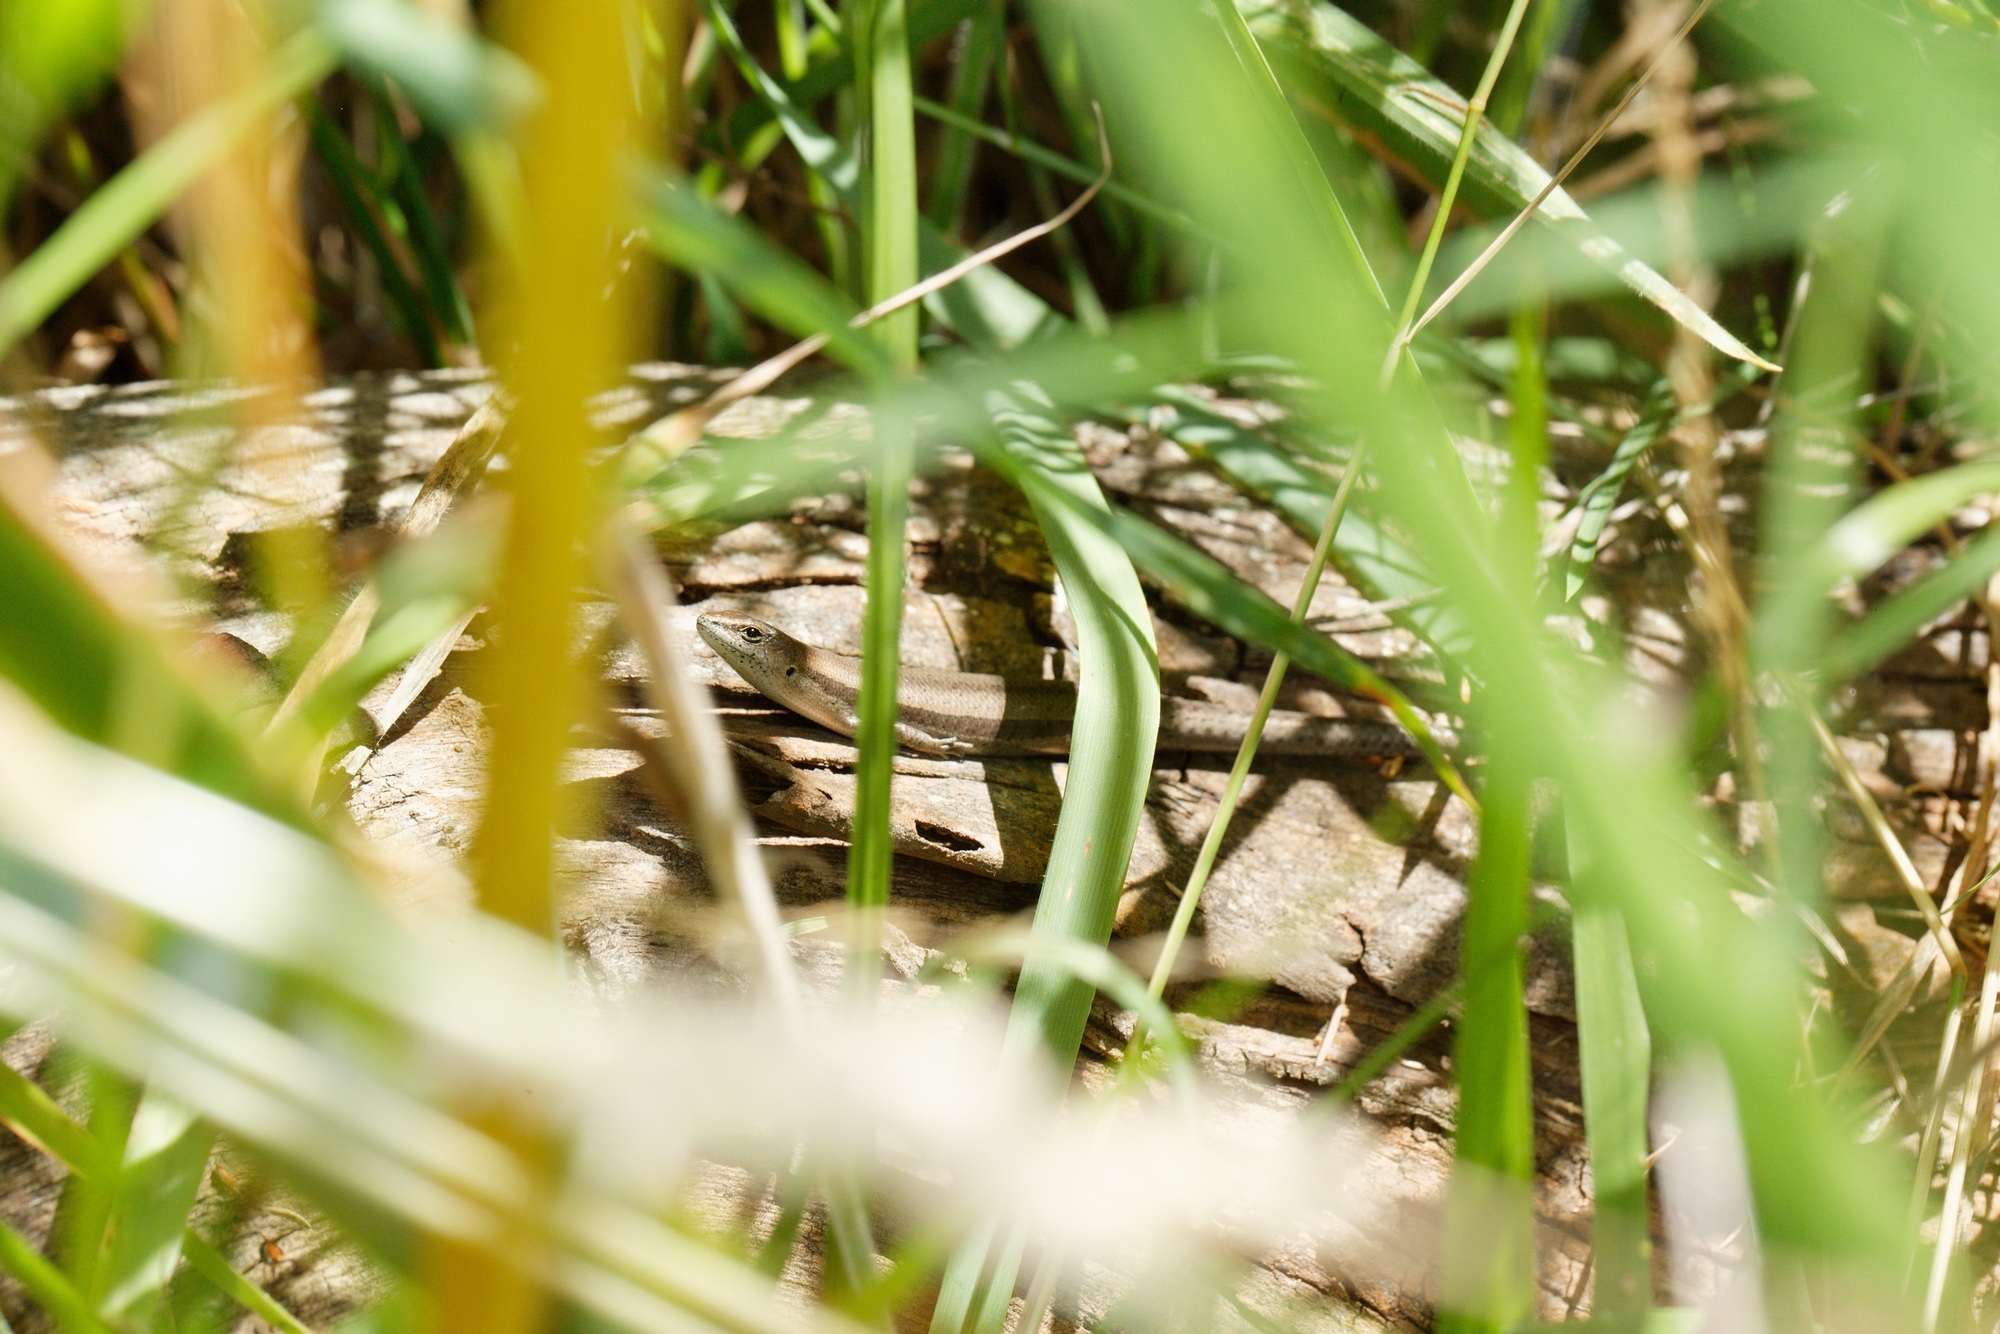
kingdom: Animalia
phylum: Chordata
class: Squamata
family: Scincidae
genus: Lampropholis
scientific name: Lampropholis guichenoti
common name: Garden skink
